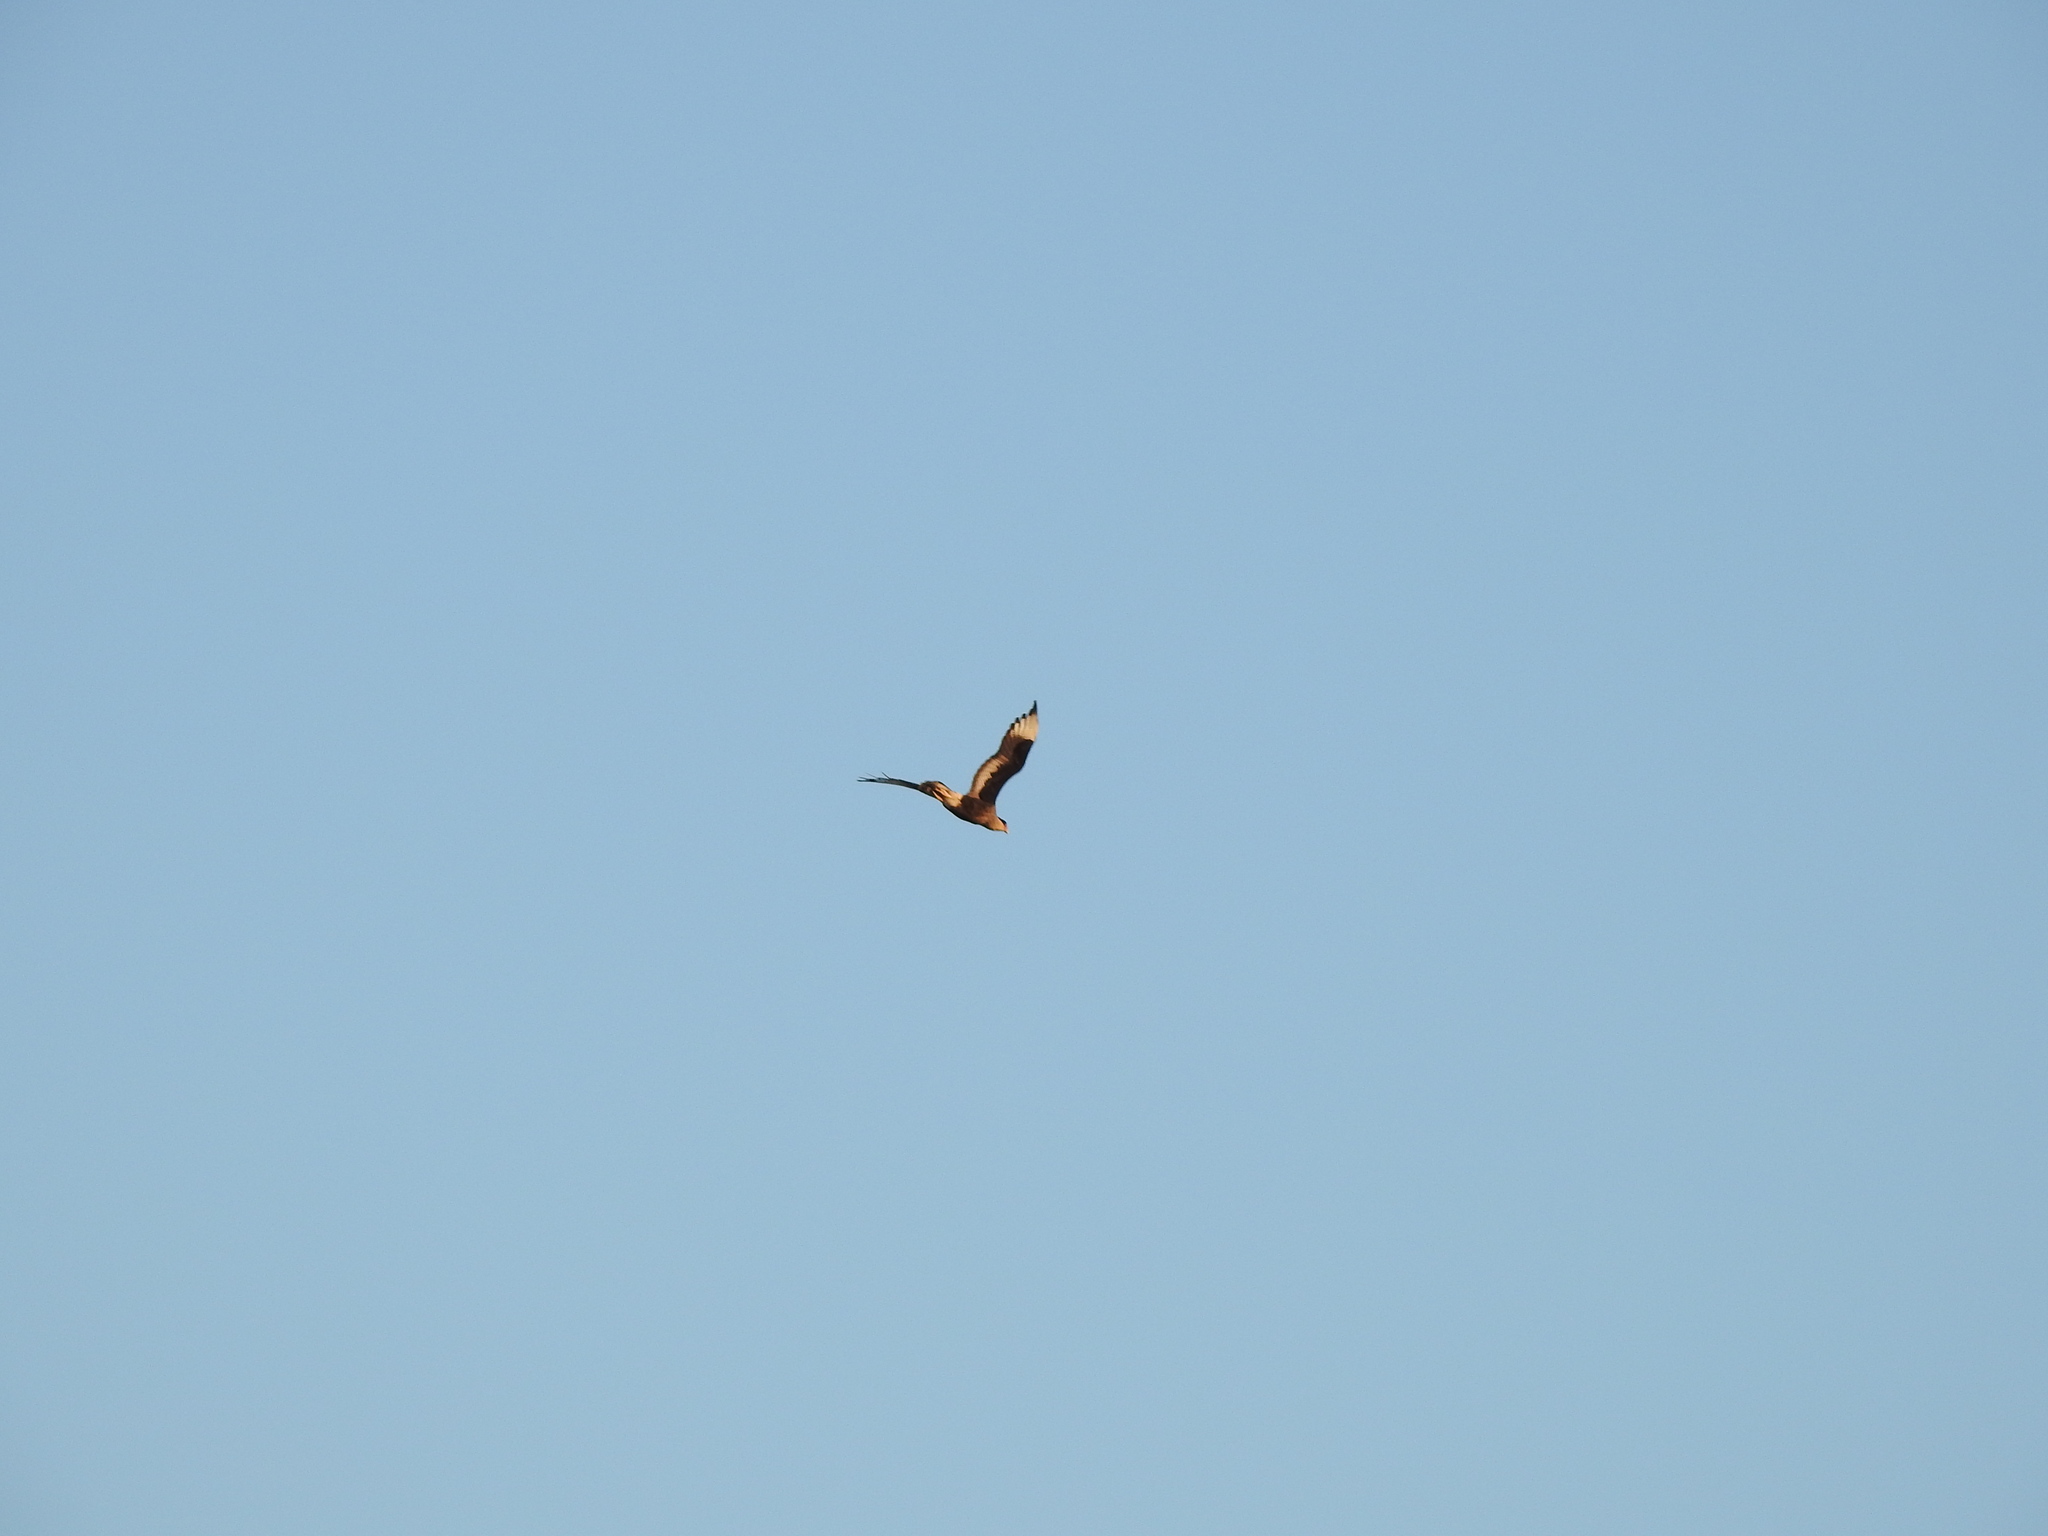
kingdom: Animalia
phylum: Chordata
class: Aves
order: Falconiformes
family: Falconidae
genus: Caracara
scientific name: Caracara plancus
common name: Southern caracara
